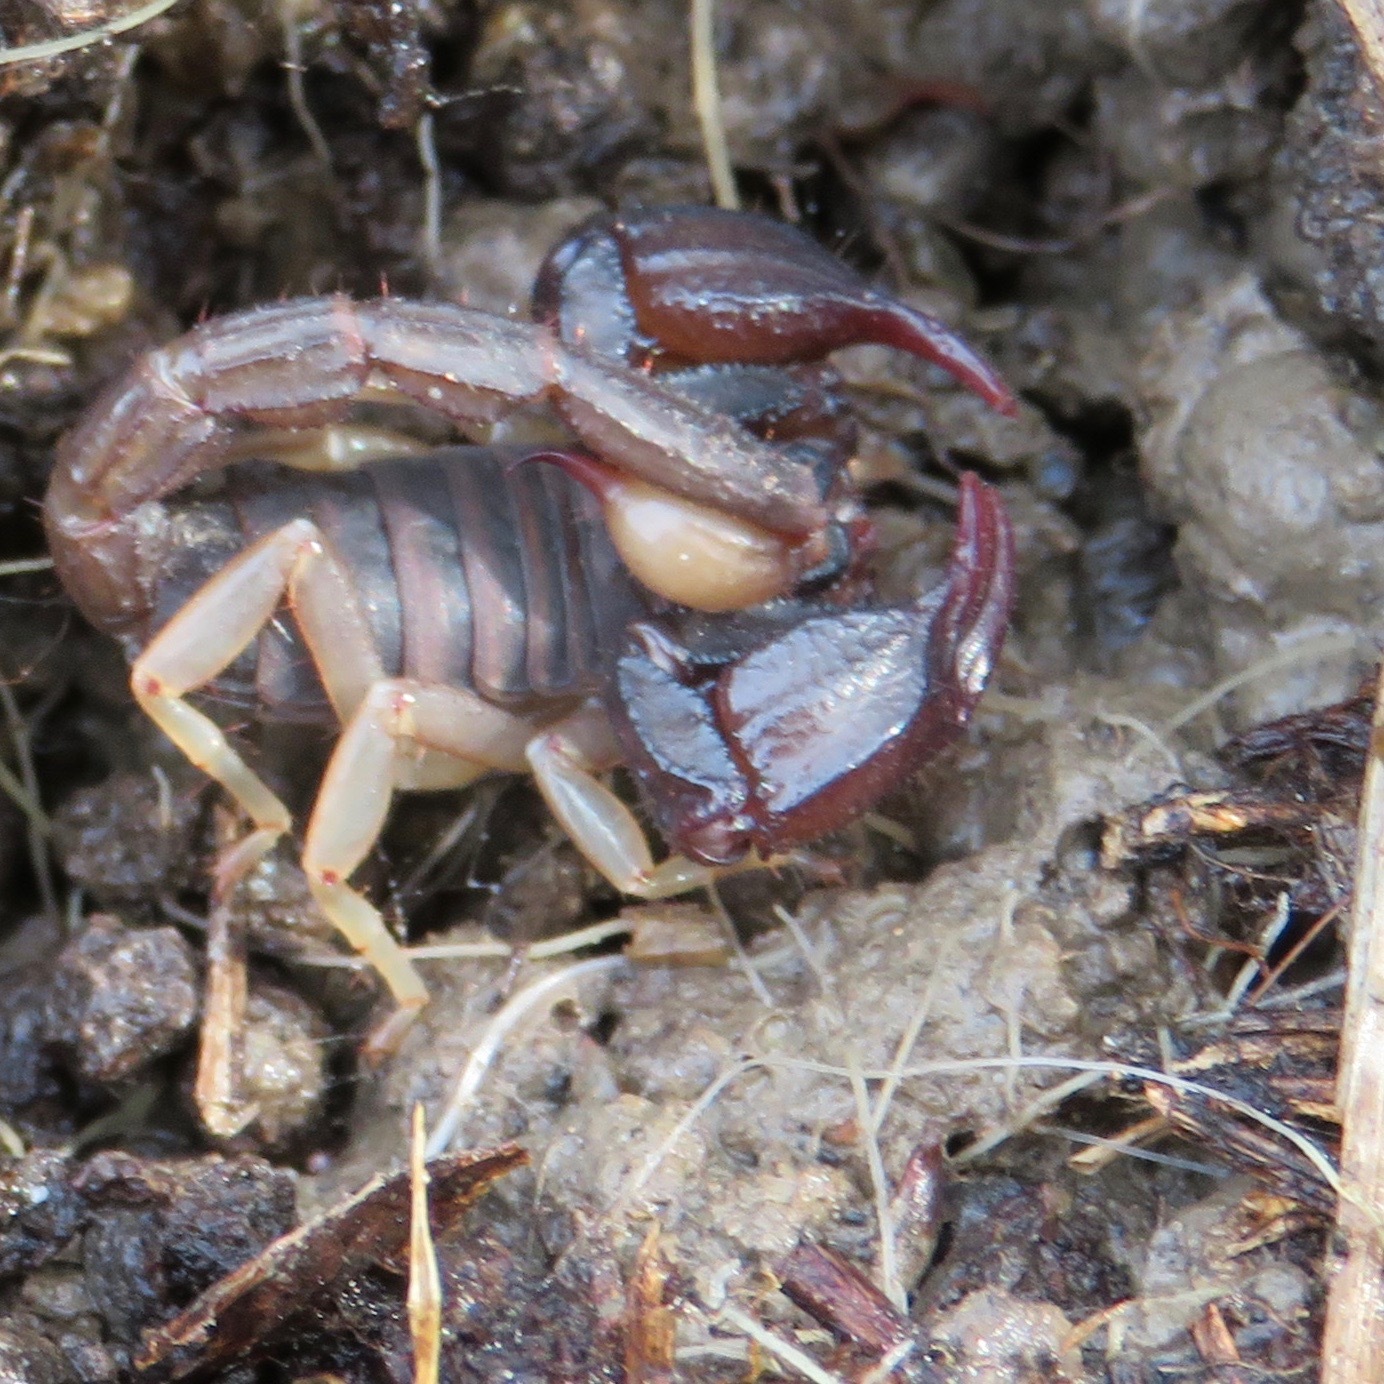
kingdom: Animalia
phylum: Arthropoda
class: Arachnida
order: Scorpiones
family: Chactidae
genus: Uroctonus
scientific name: Uroctonus mordax
